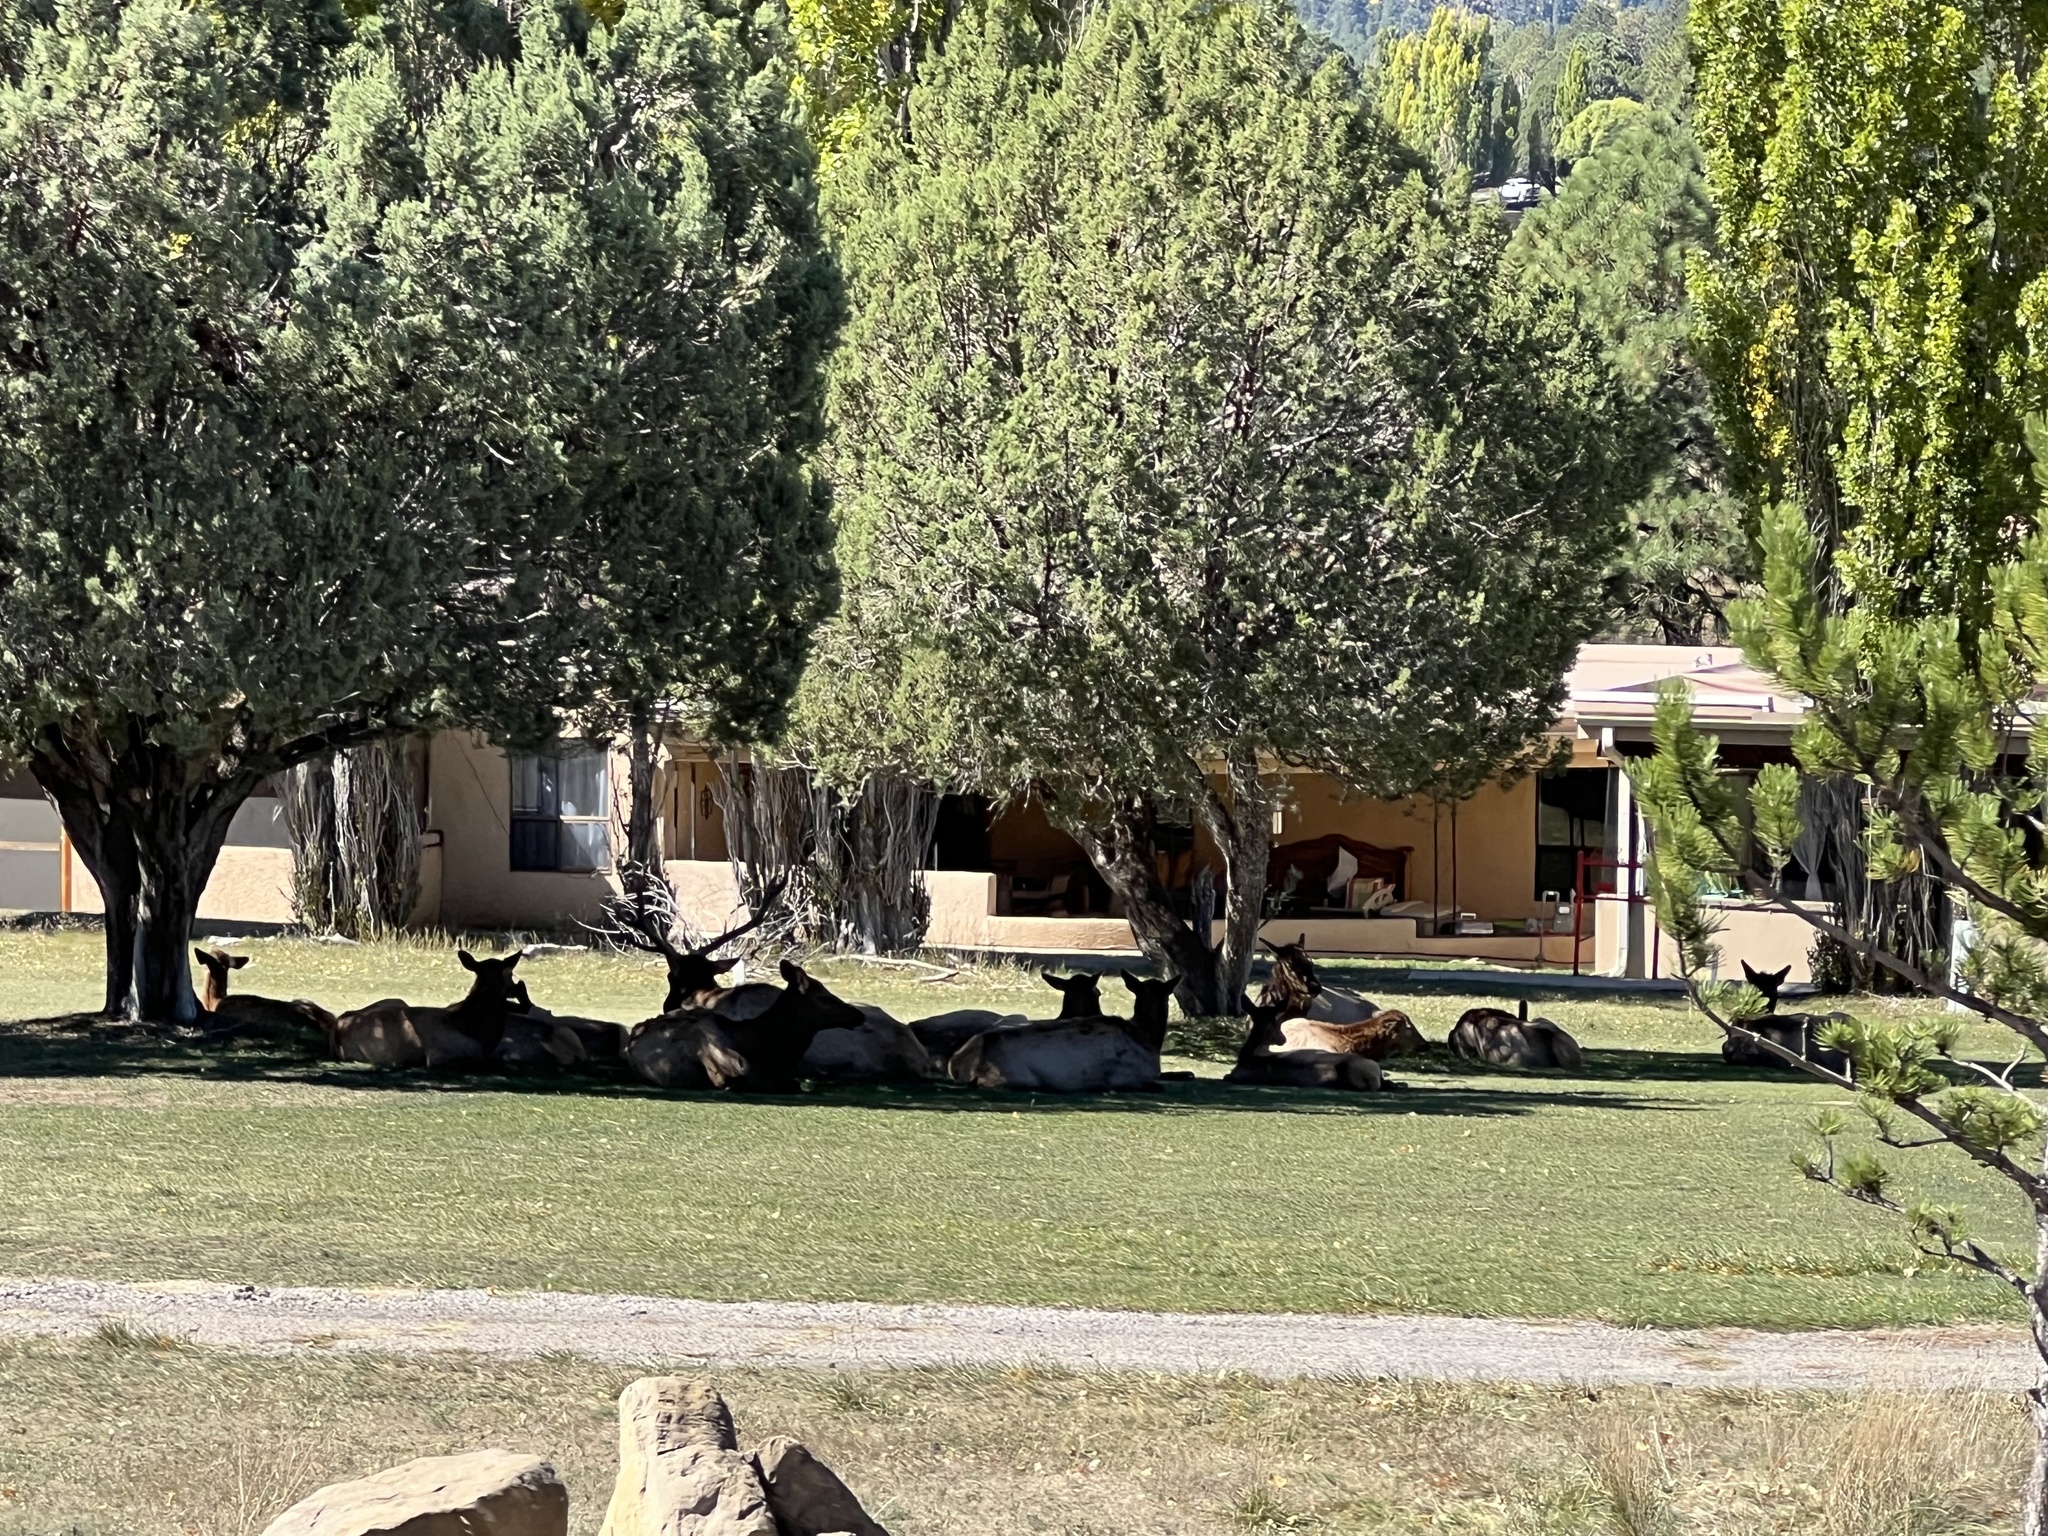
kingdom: Animalia
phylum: Chordata
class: Mammalia
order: Artiodactyla
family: Cervidae
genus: Cervus
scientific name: Cervus elaphus
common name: Red deer
